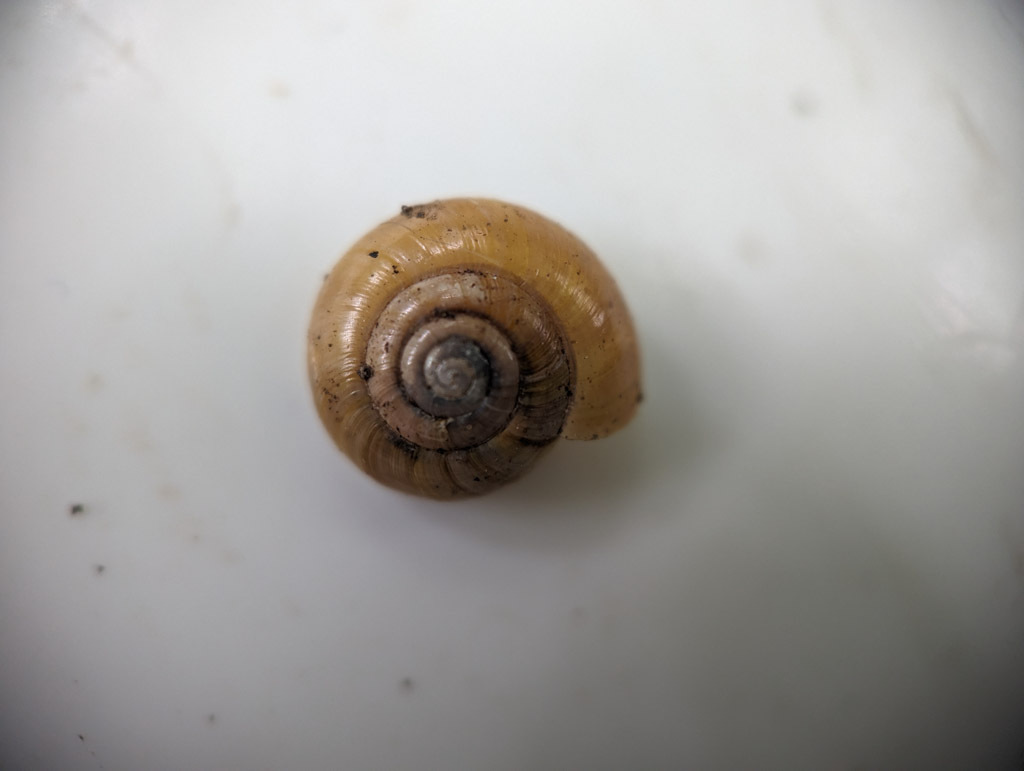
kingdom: Animalia
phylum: Mollusca
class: Gastropoda
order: Stylommatophora
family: Hygromiidae
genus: Monacha
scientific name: Monacha cantiana
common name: Kentish snail
